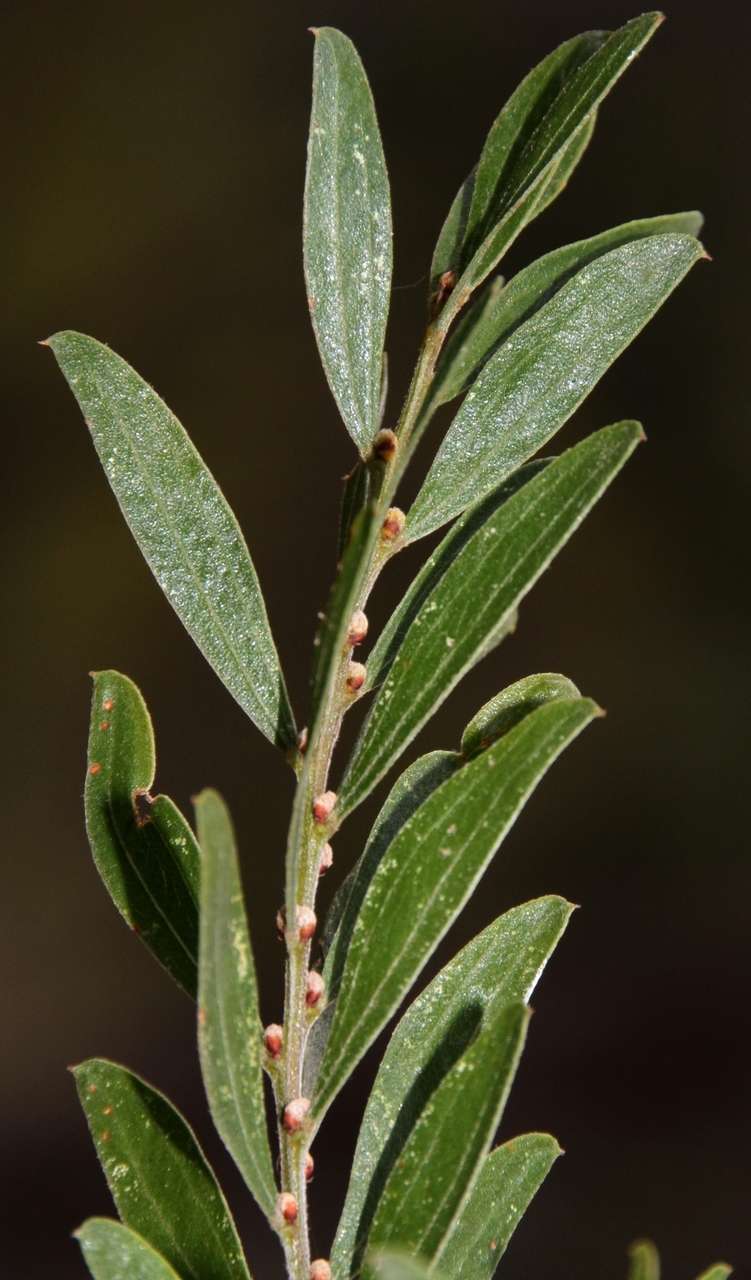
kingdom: Plantae
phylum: Tracheophyta
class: Magnoliopsida
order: Fabales
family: Fabaceae
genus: Acacia
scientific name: Acacia rostriformis
